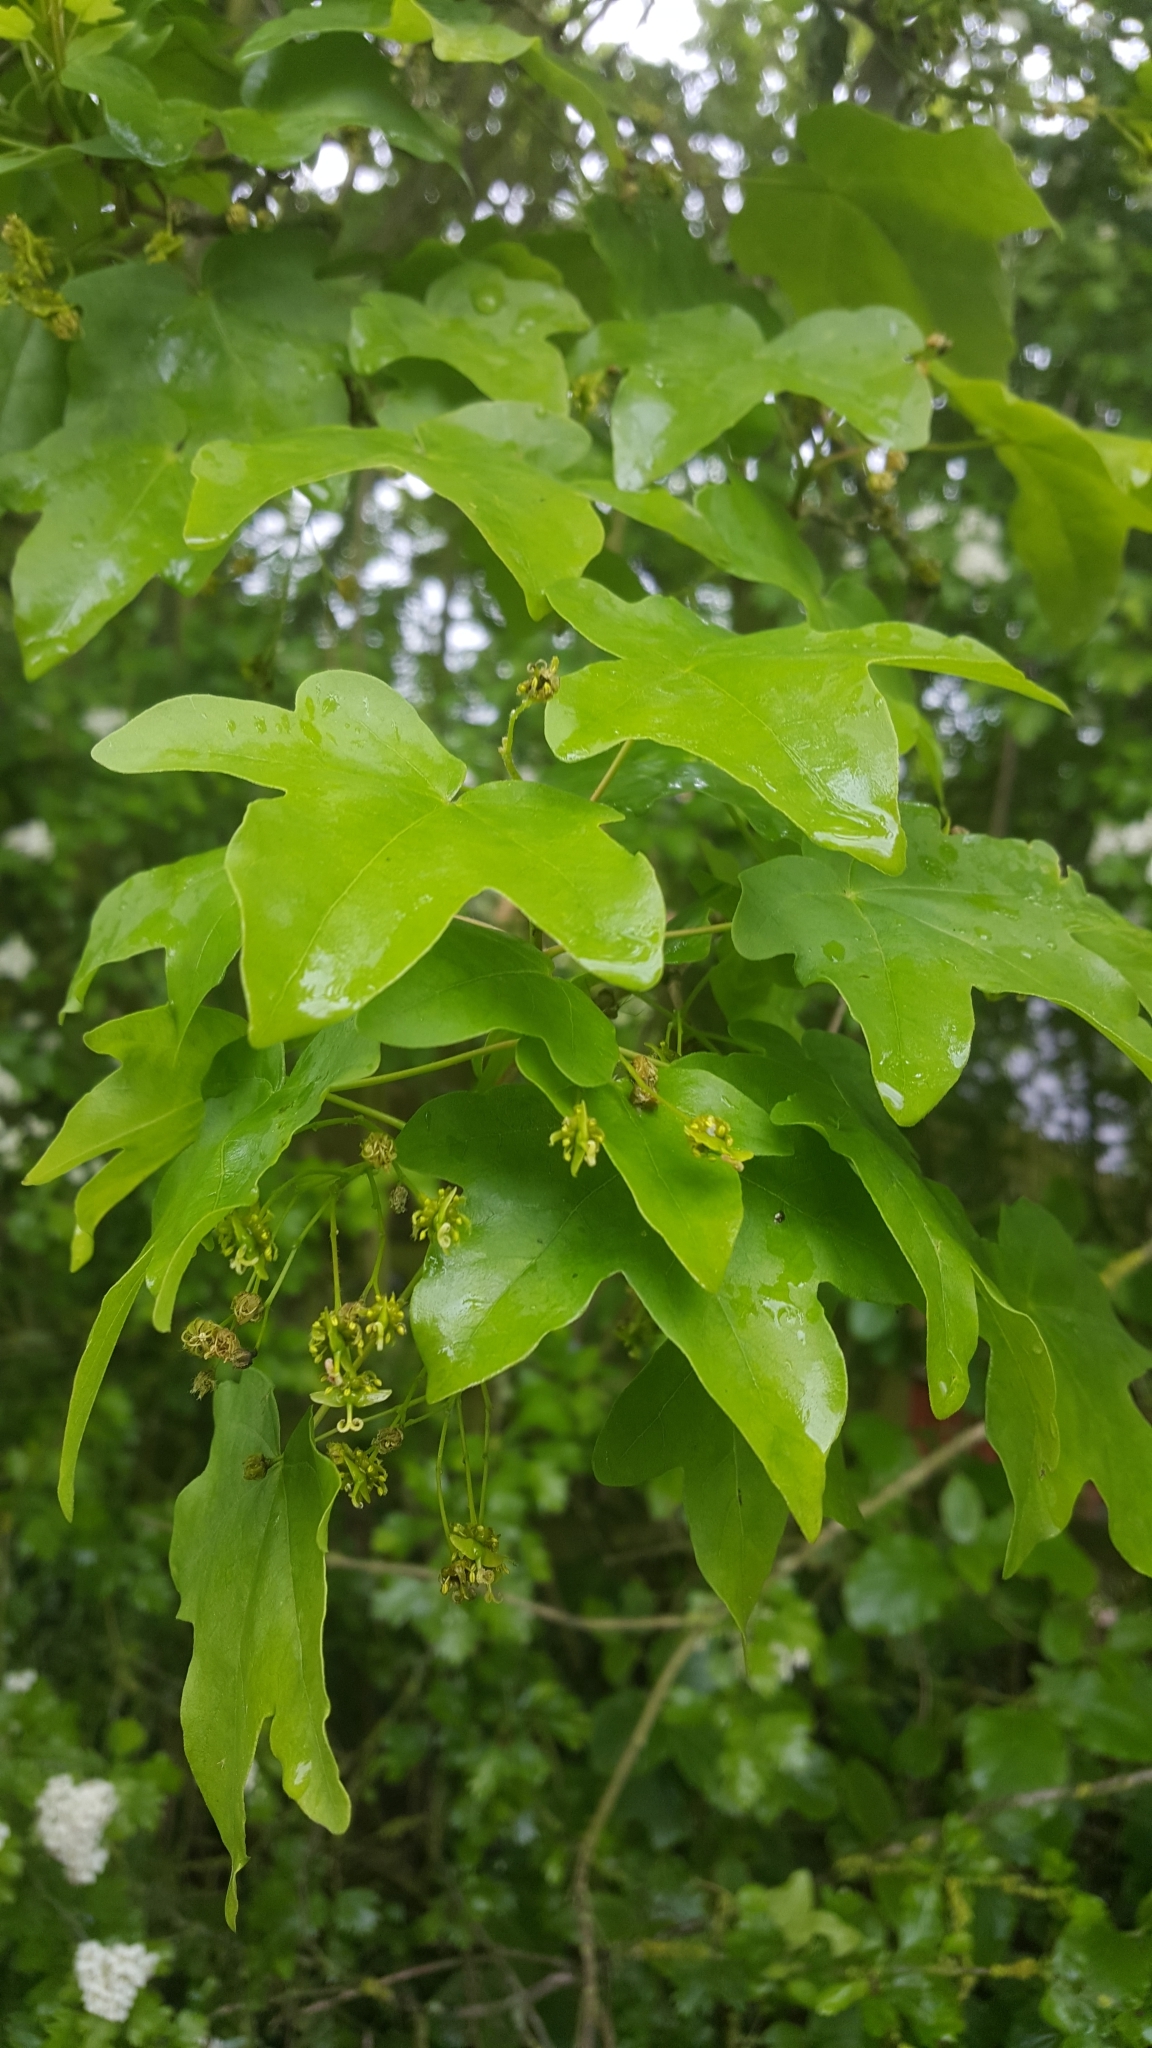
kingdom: Plantae
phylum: Tracheophyta
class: Magnoliopsida
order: Sapindales
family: Sapindaceae
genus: Acer
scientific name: Acer campestre
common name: Field maple
